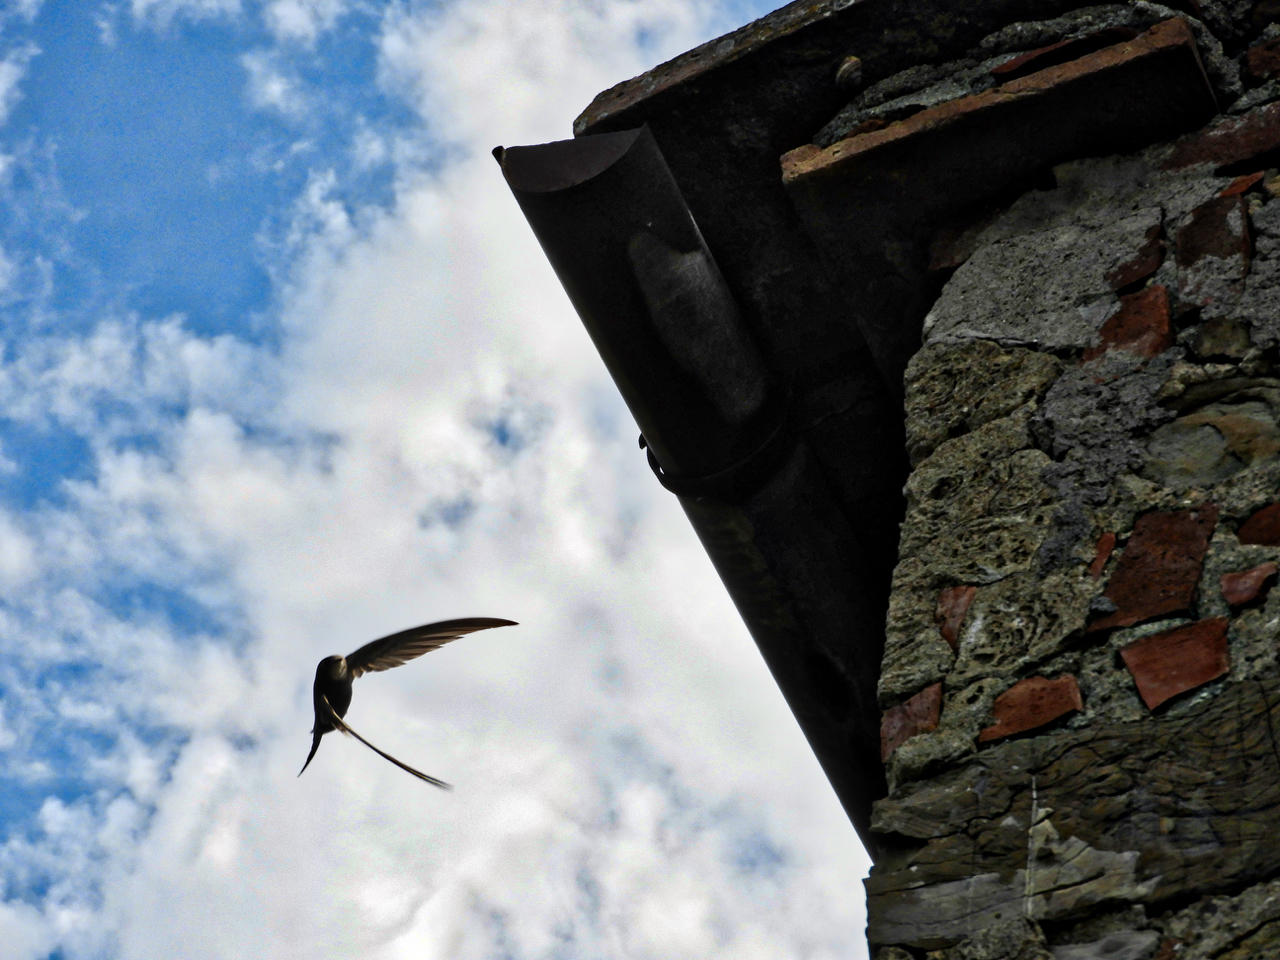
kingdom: Animalia
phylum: Chordata
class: Aves
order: Apodiformes
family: Apodidae
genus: Apus
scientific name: Apus apus
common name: Common swift
